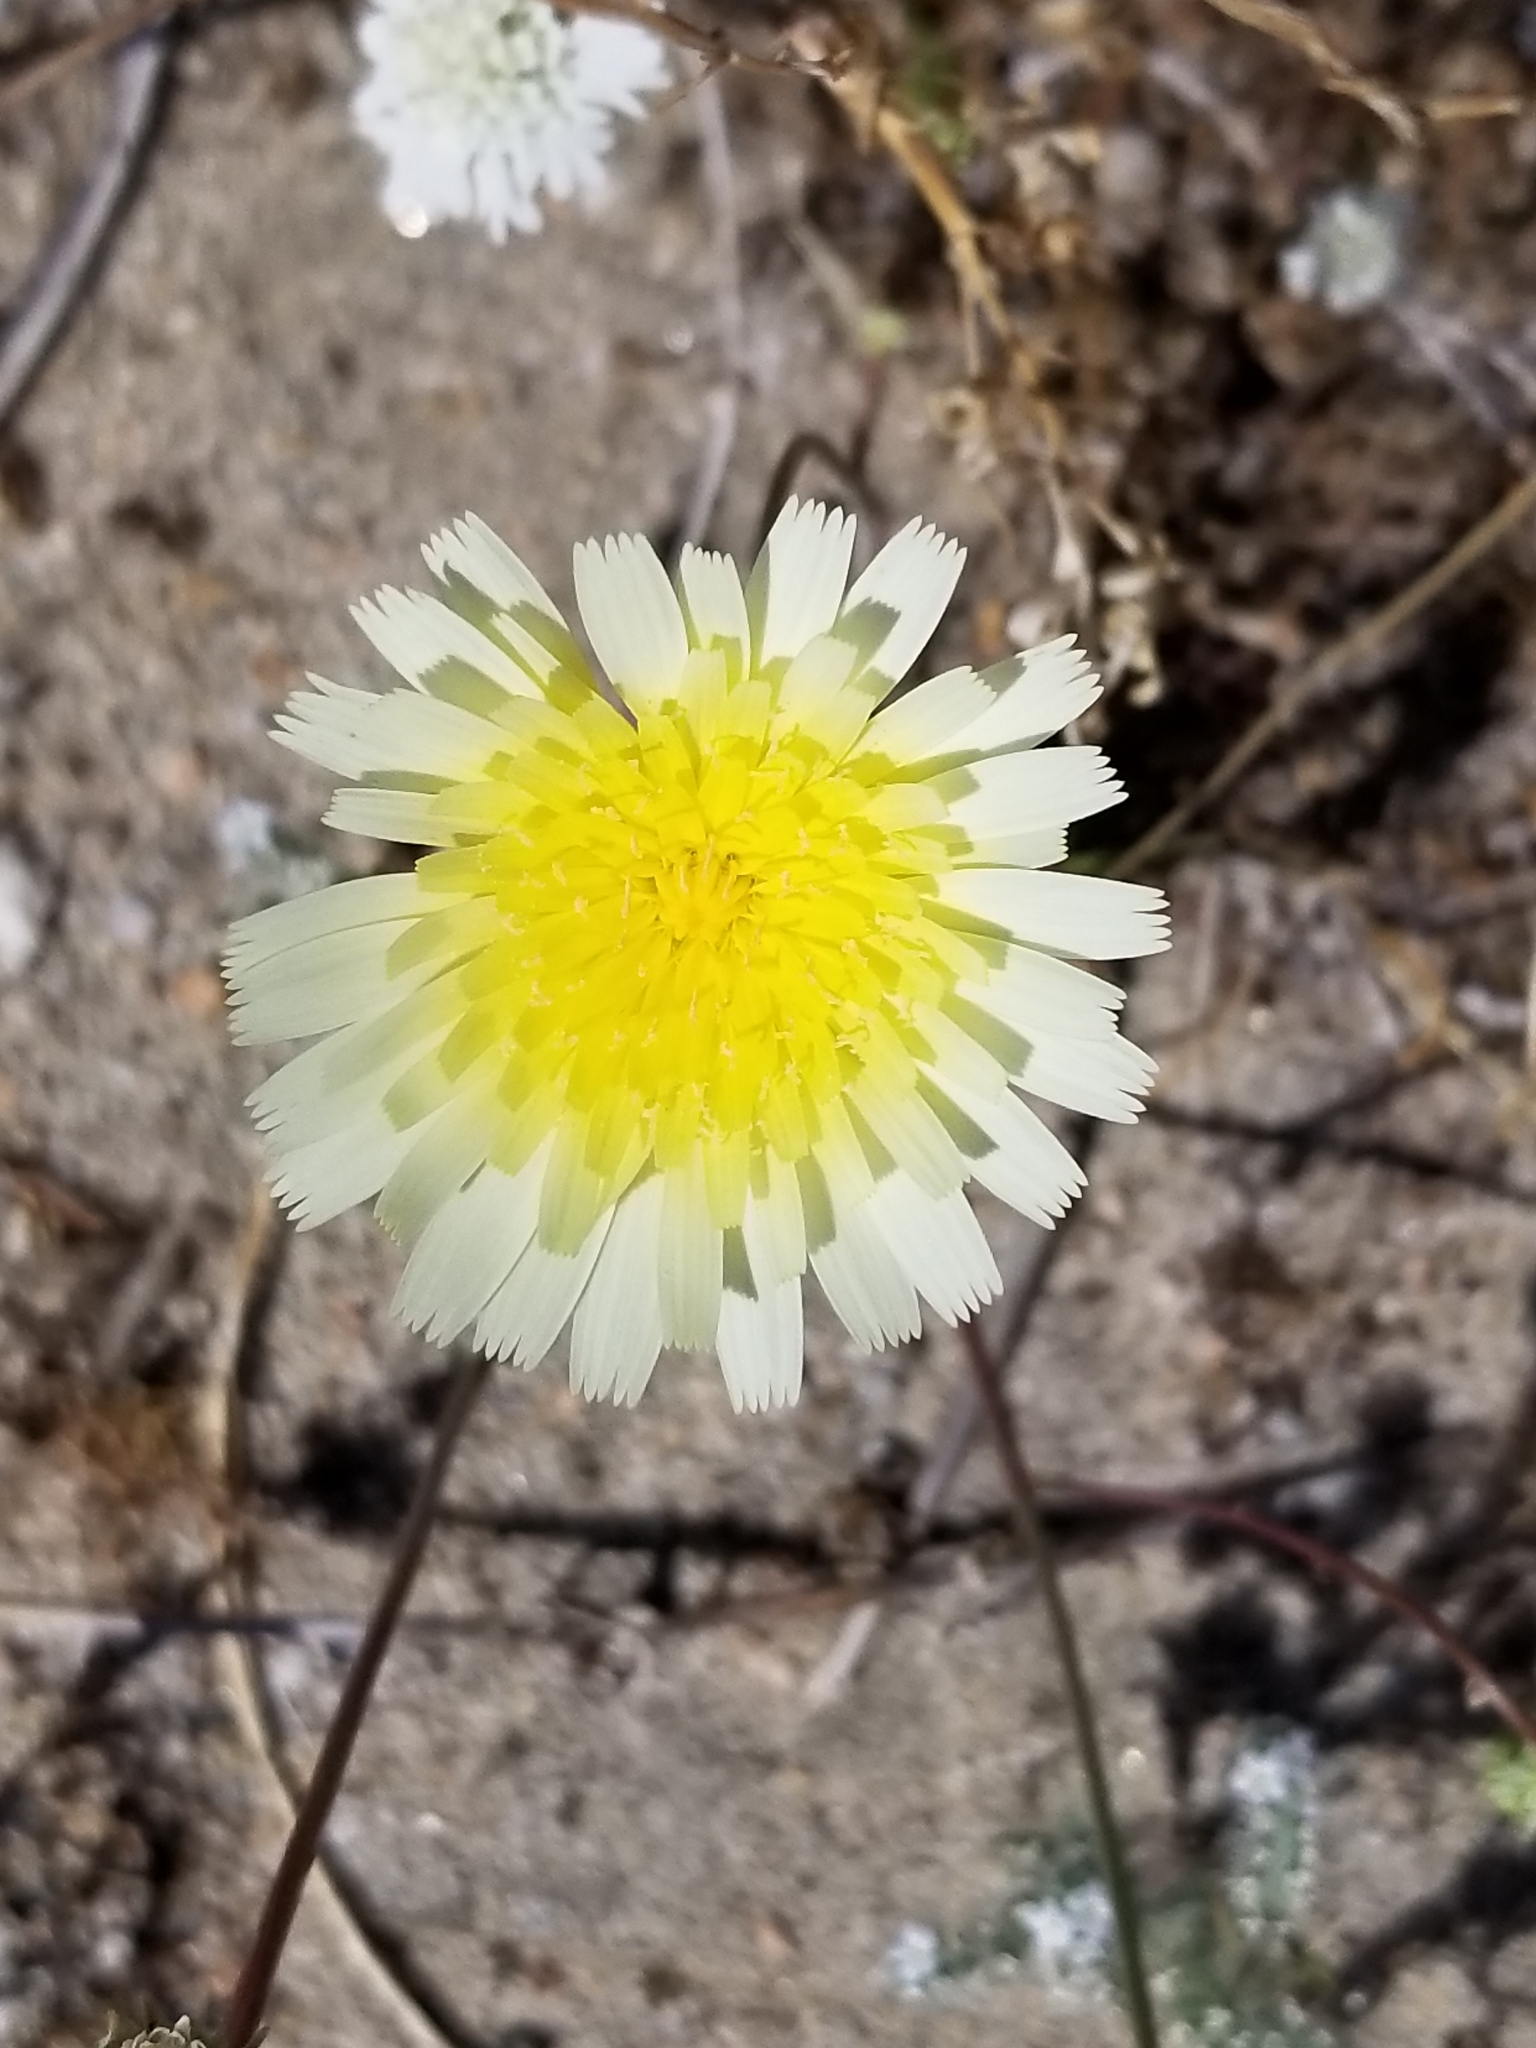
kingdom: Plantae
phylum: Tracheophyta
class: Magnoliopsida
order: Asterales
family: Asteraceae
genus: Malacothrix
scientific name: Malacothrix glabrata
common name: Smooth desert-dandelion
